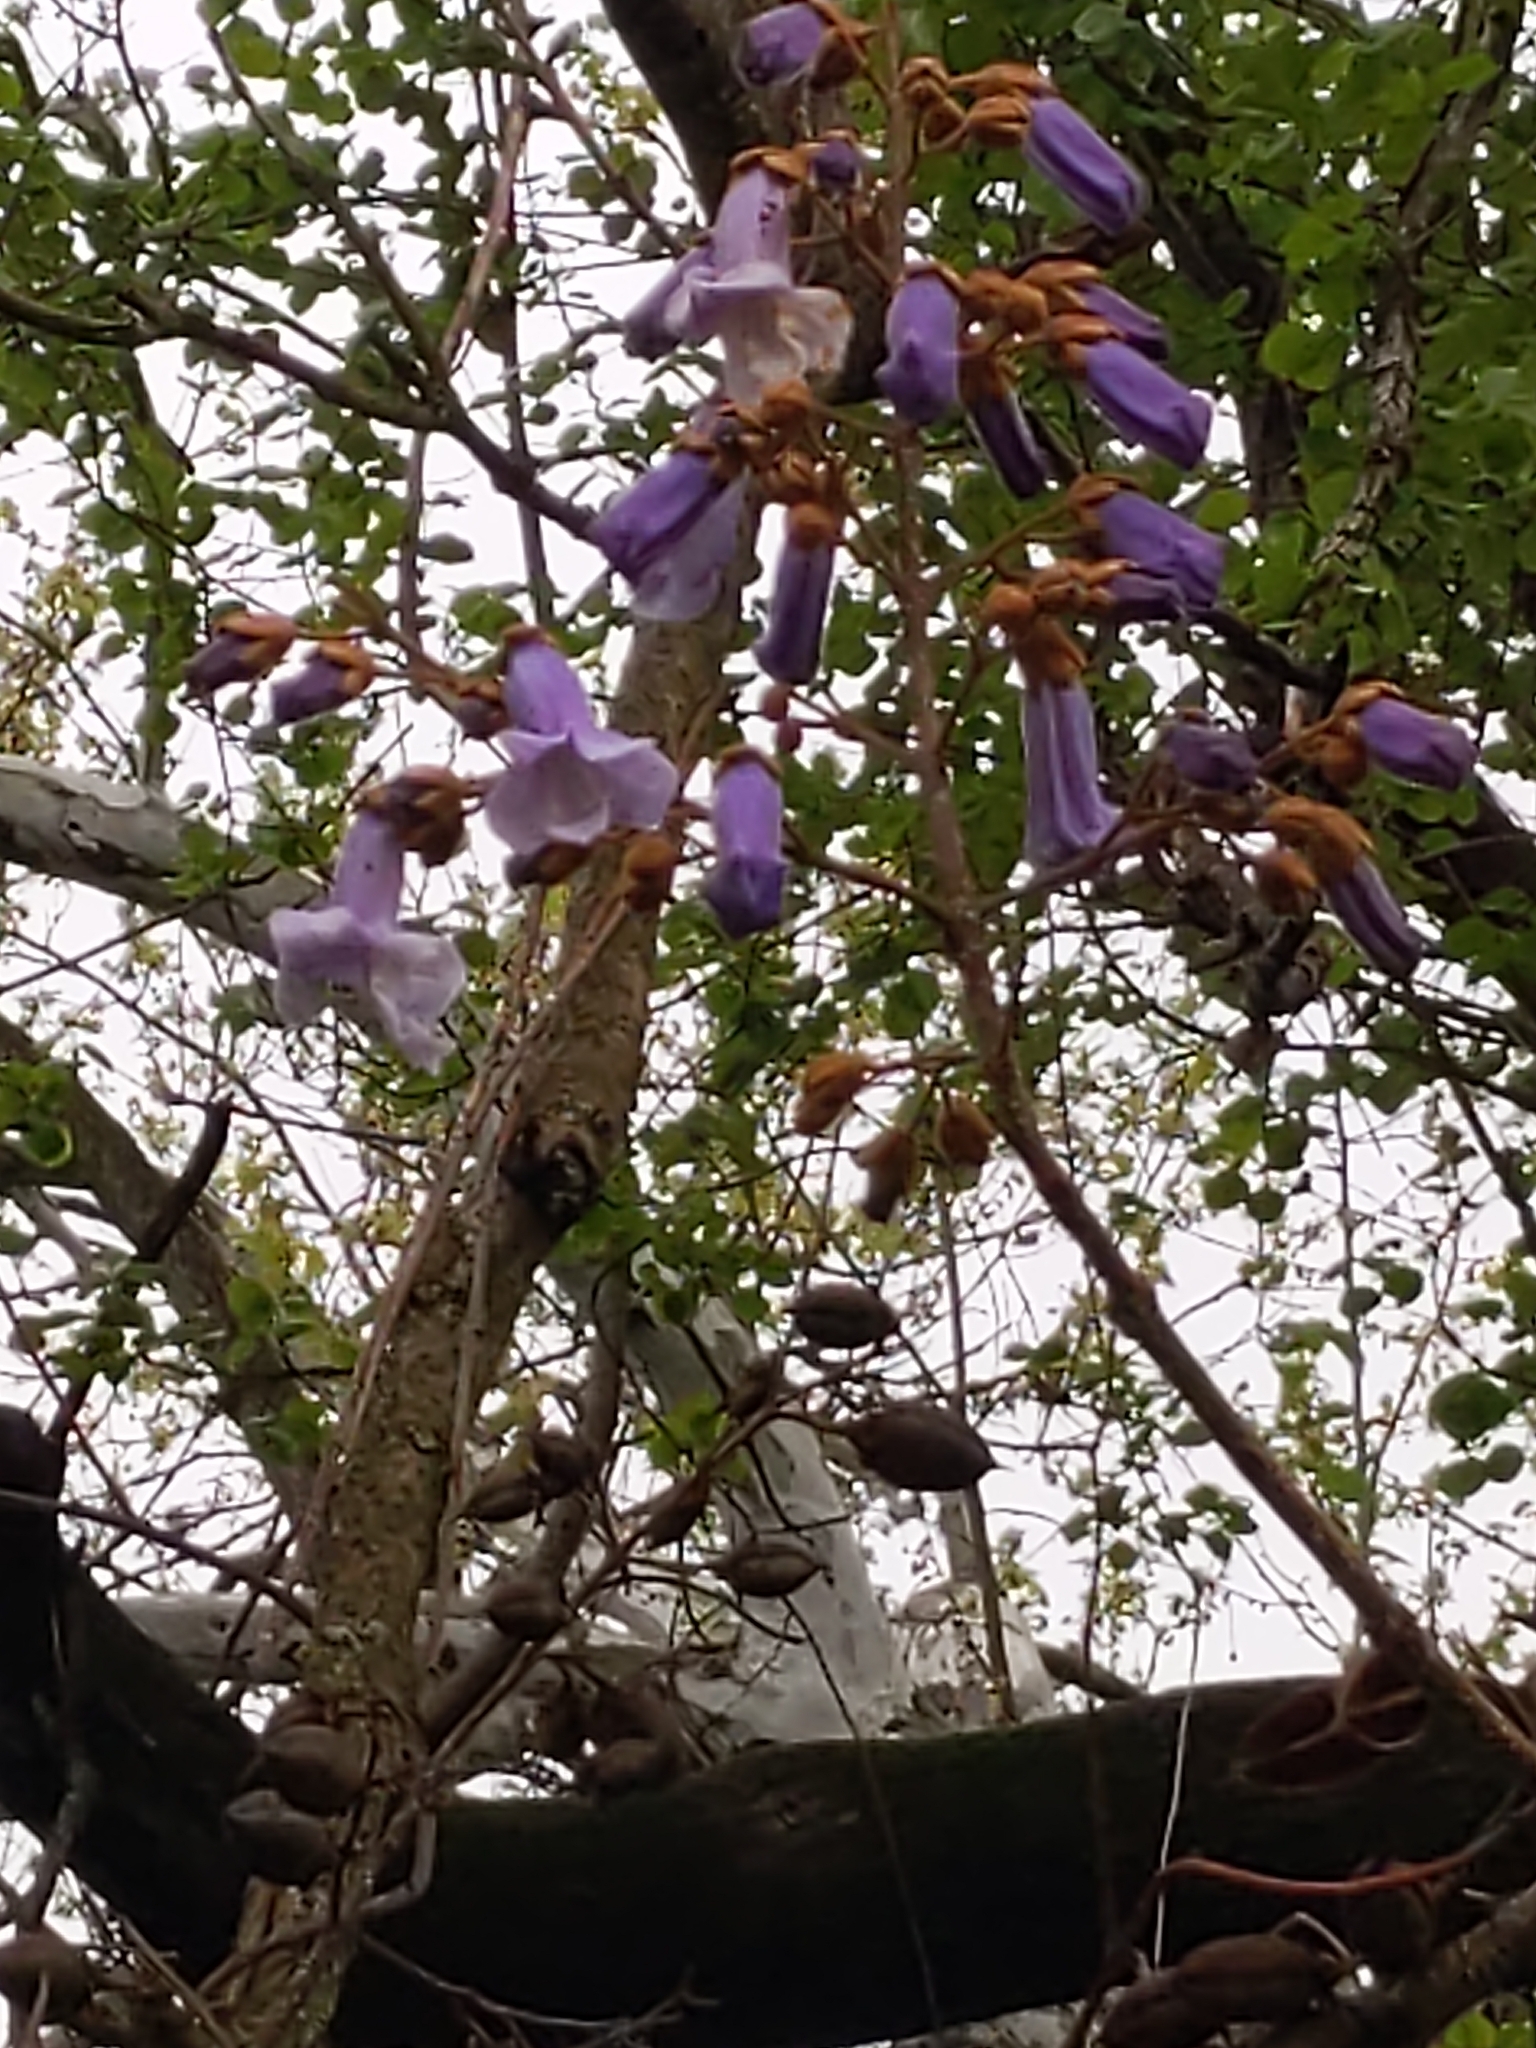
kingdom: Plantae
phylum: Tracheophyta
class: Magnoliopsida
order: Lamiales
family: Paulowniaceae
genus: Paulownia
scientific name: Paulownia tomentosa
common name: Foxglove-tree
